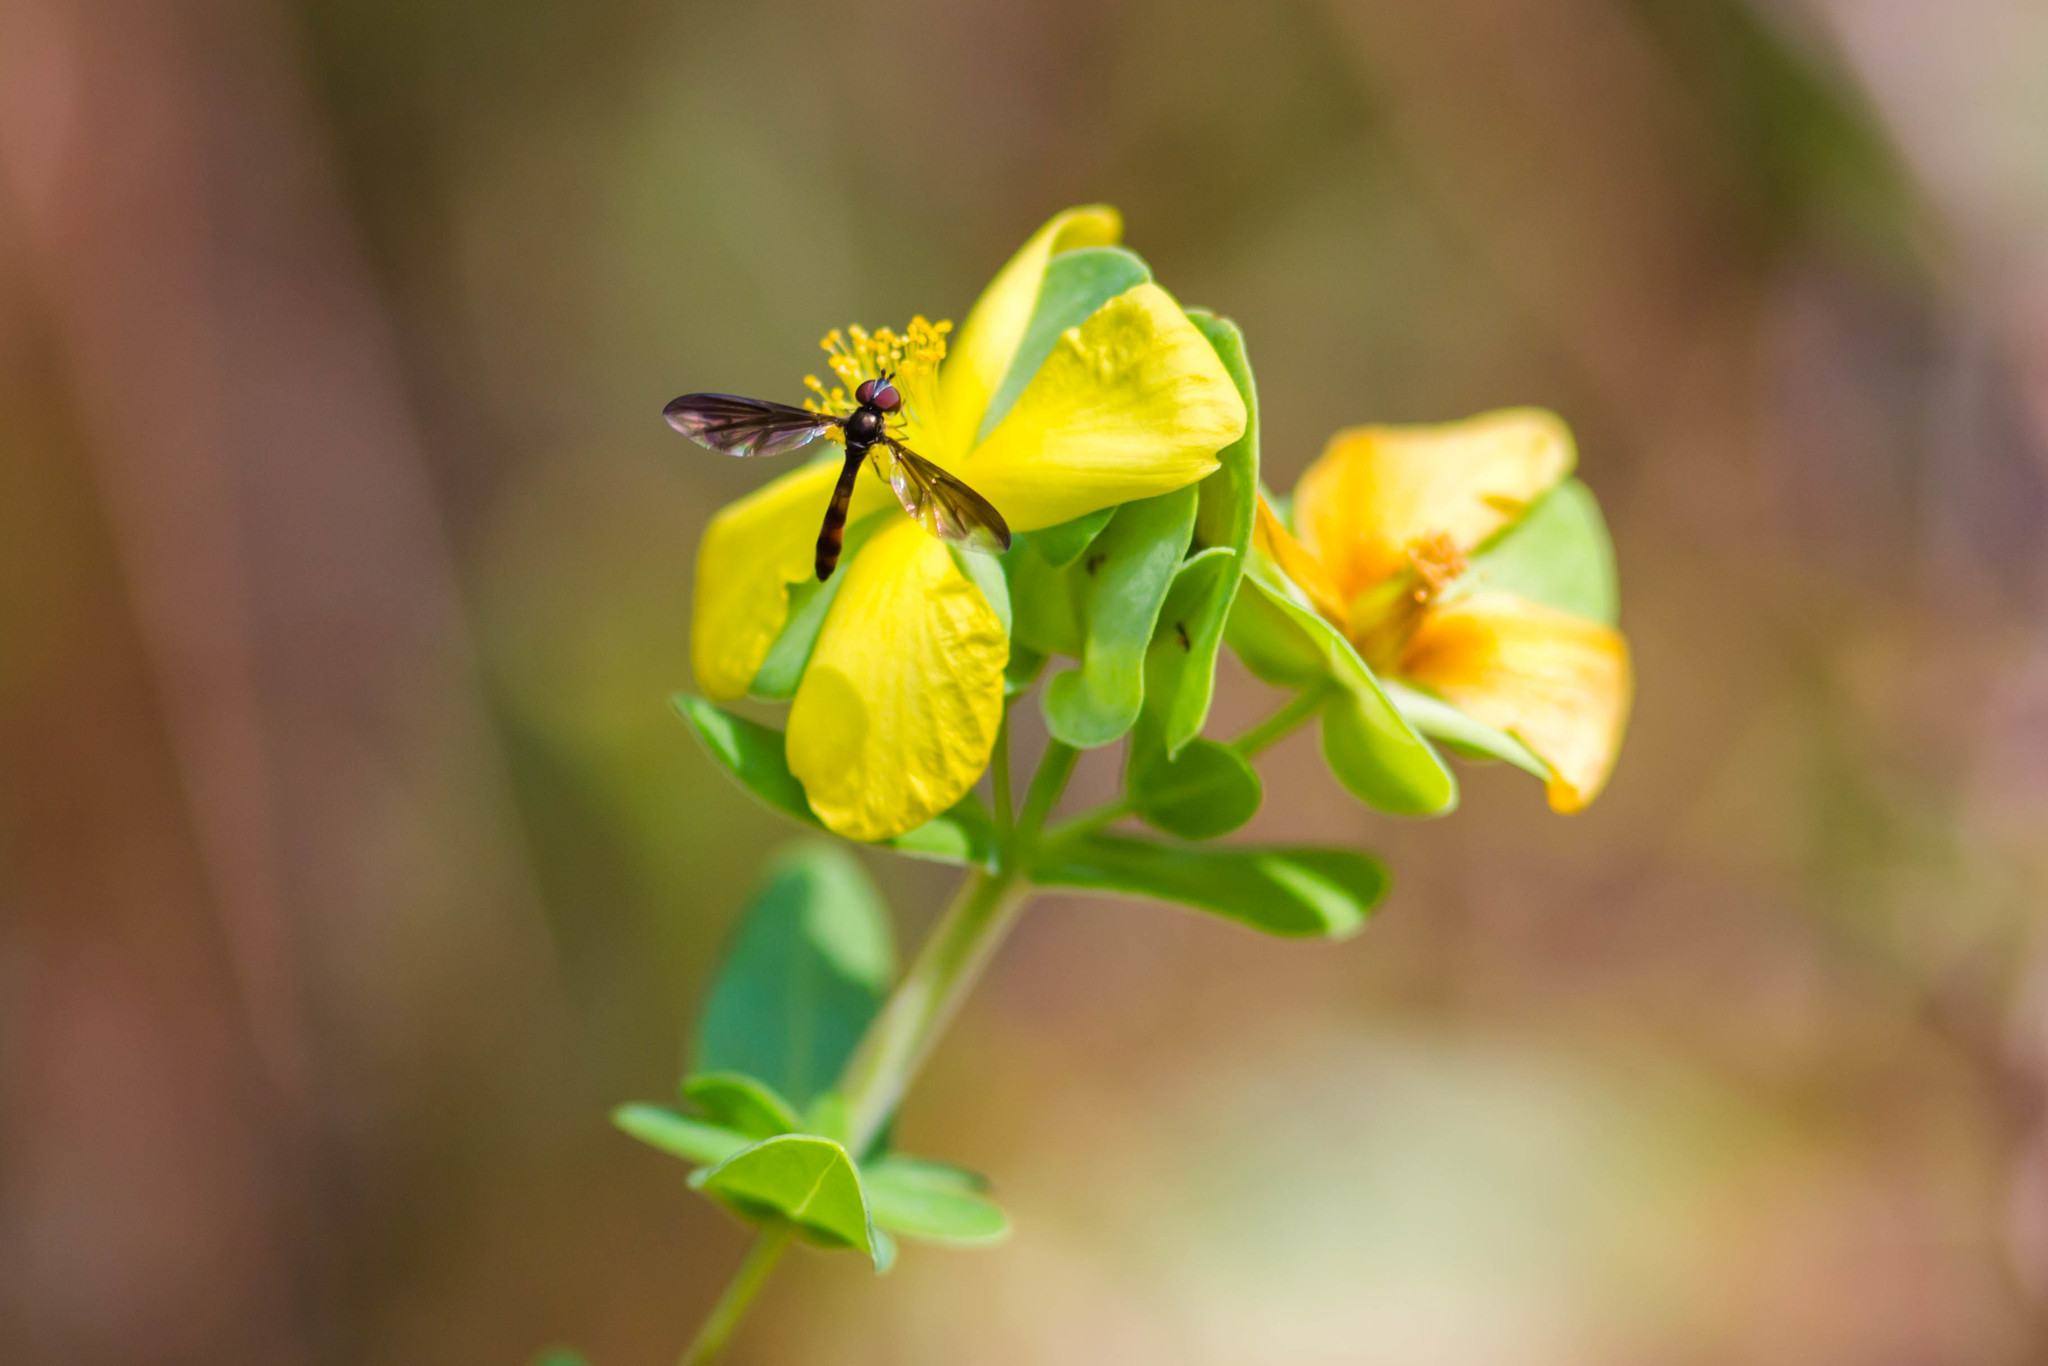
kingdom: Animalia
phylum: Arthropoda
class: Insecta
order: Diptera
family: Syrphidae
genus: Ocyptamus
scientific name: Ocyptamus fuscipennis
